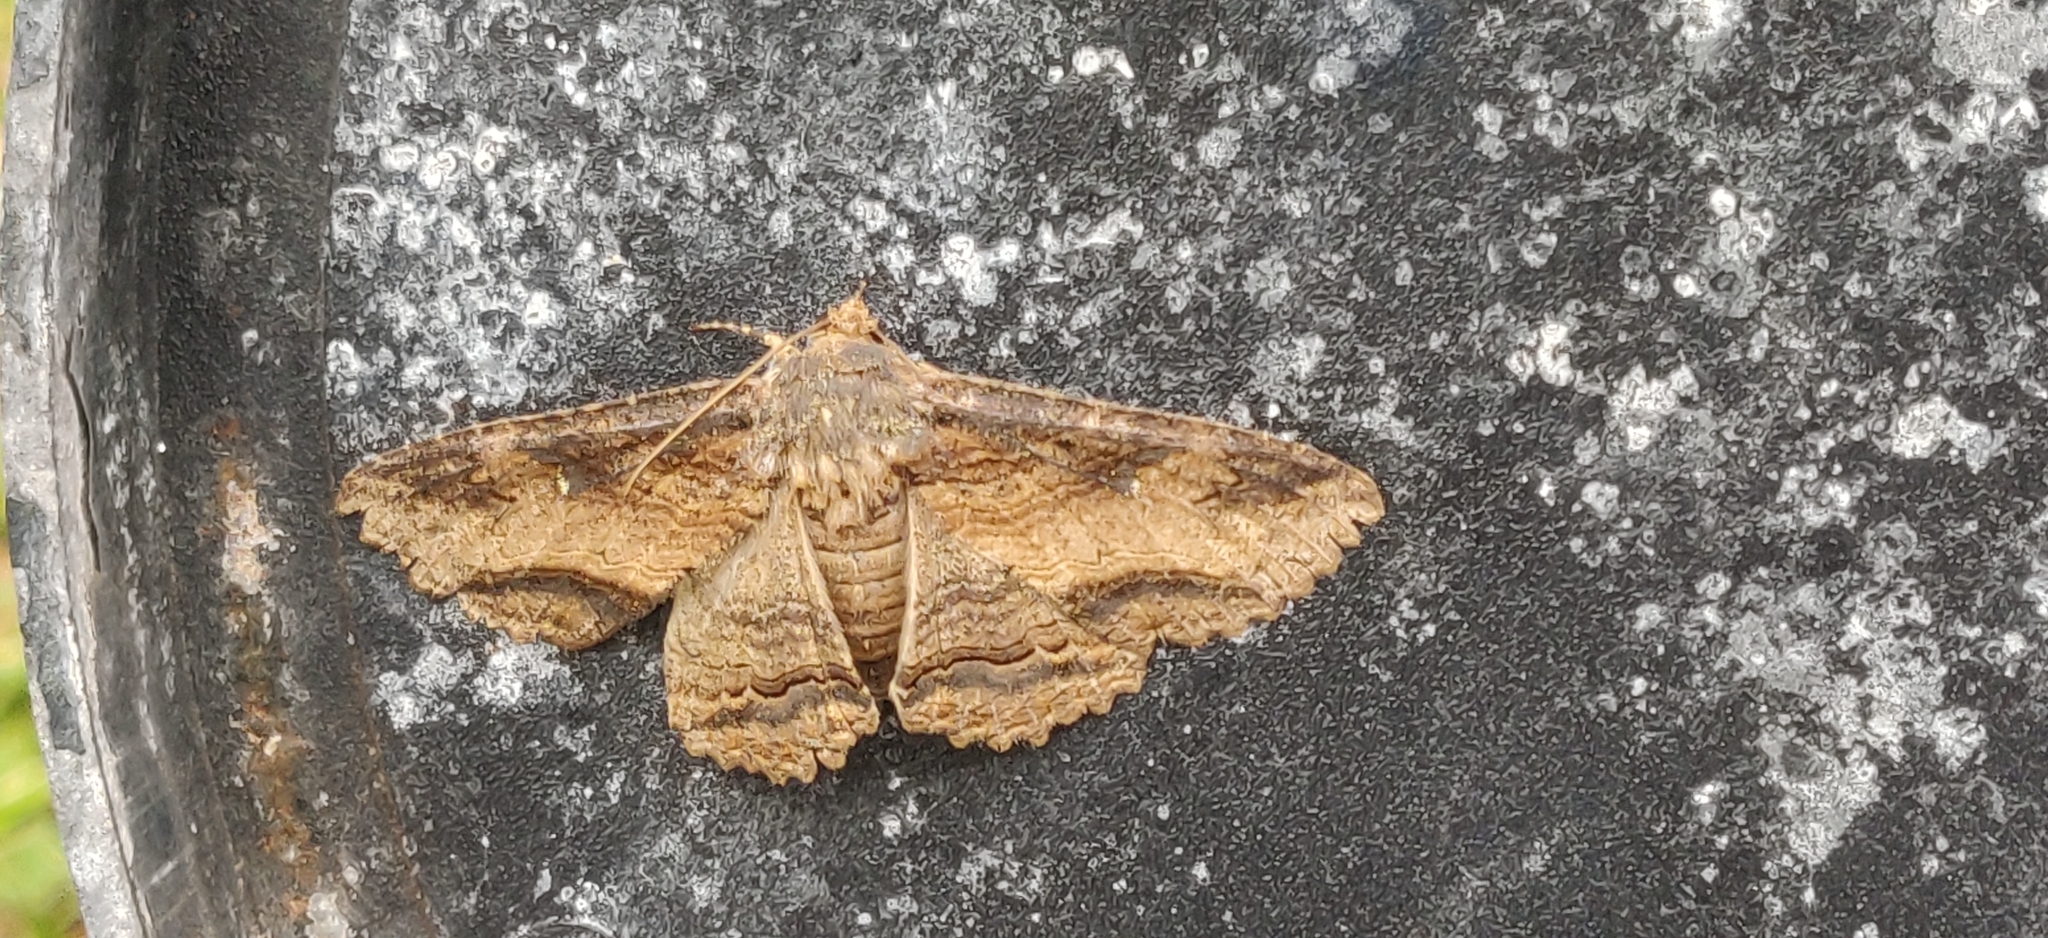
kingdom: Animalia
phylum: Arthropoda
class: Insecta
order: Lepidoptera
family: Erebidae
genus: Zale
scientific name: Zale lunata
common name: Lunate zale moth
